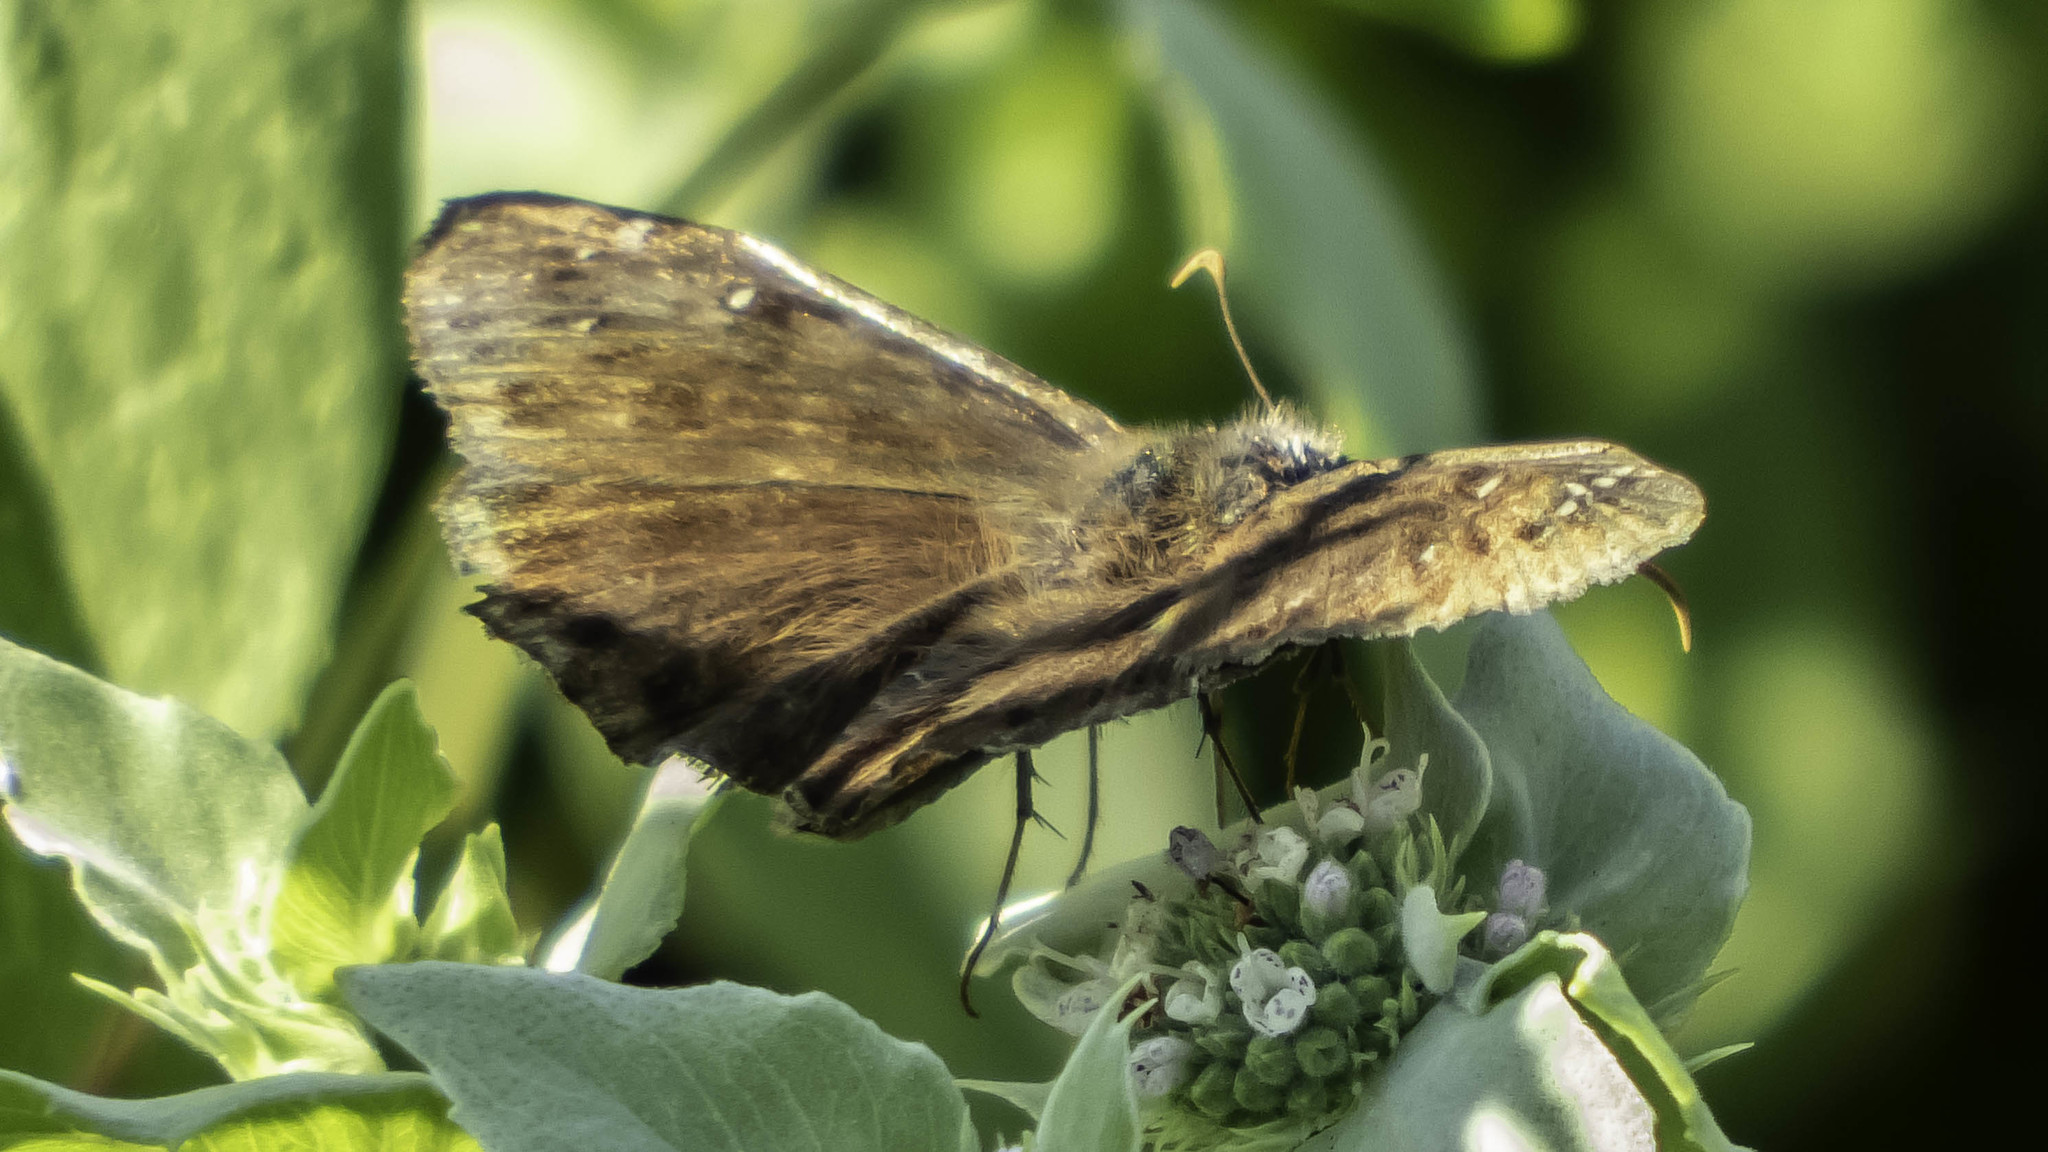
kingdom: Animalia
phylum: Arthropoda
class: Insecta
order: Lepidoptera
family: Hesperiidae
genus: Erynnis
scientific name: Erynnis horatius
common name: Horace's duskywing
